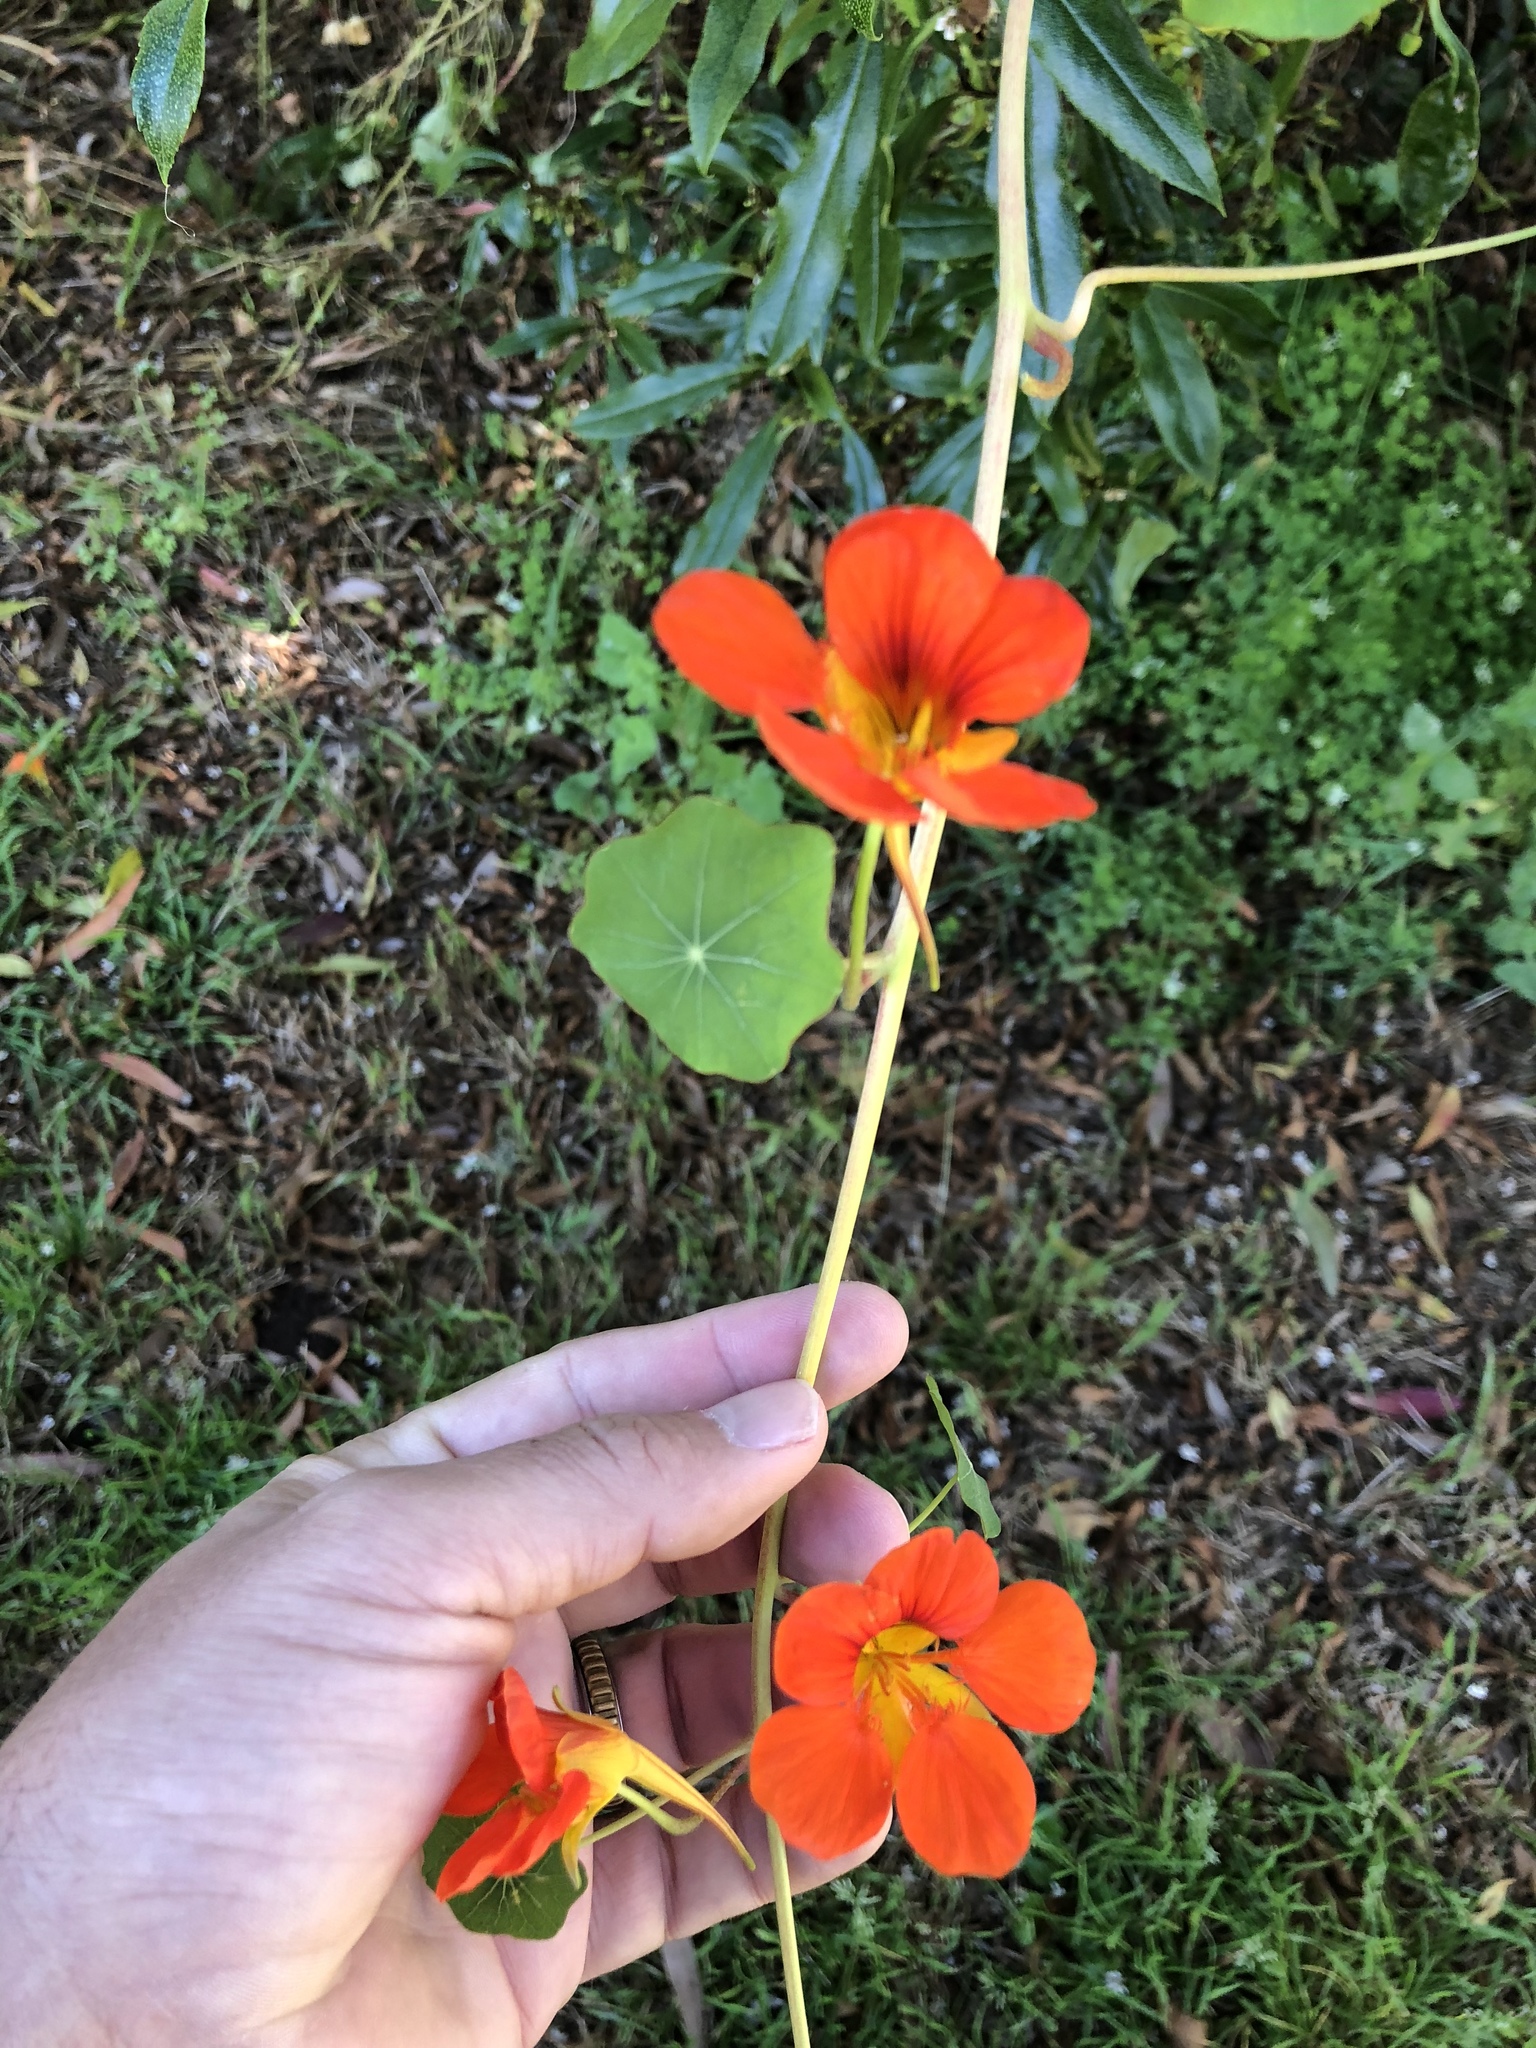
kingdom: Plantae
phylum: Tracheophyta
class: Magnoliopsida
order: Brassicales
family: Tropaeolaceae
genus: Tropaeolum
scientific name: Tropaeolum majus
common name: Nasturtium
